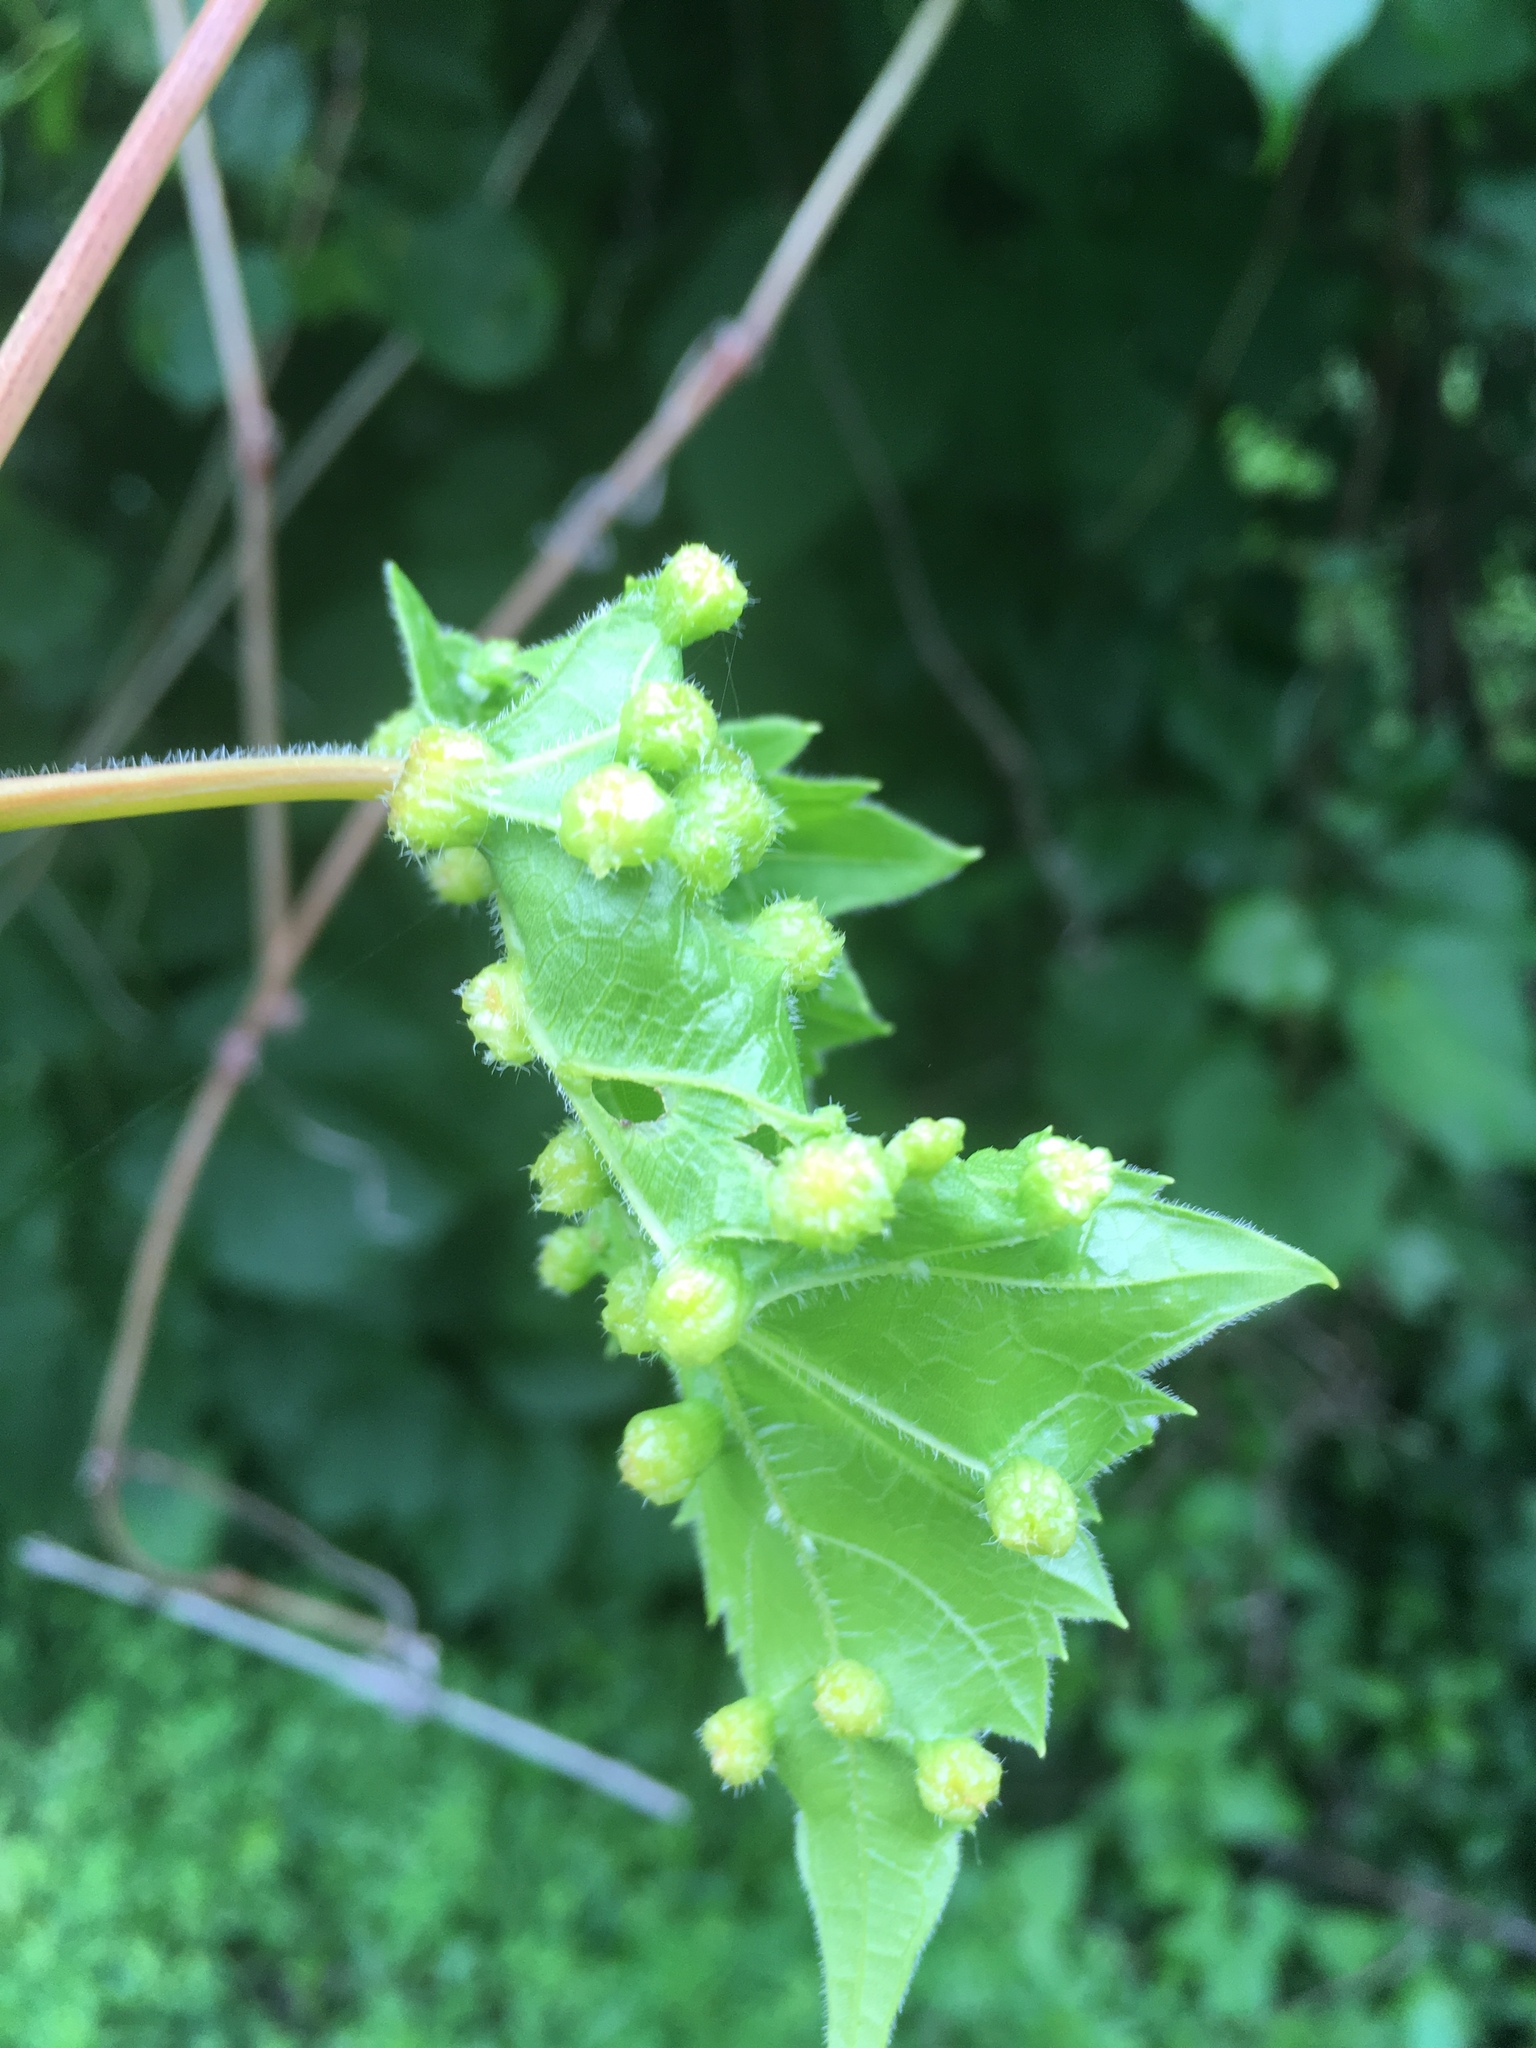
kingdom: Animalia
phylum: Arthropoda
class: Insecta
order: Hemiptera
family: Phylloxeridae
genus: Daktulosphaira
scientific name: Daktulosphaira vitifoliae
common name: Grape phylloxera
